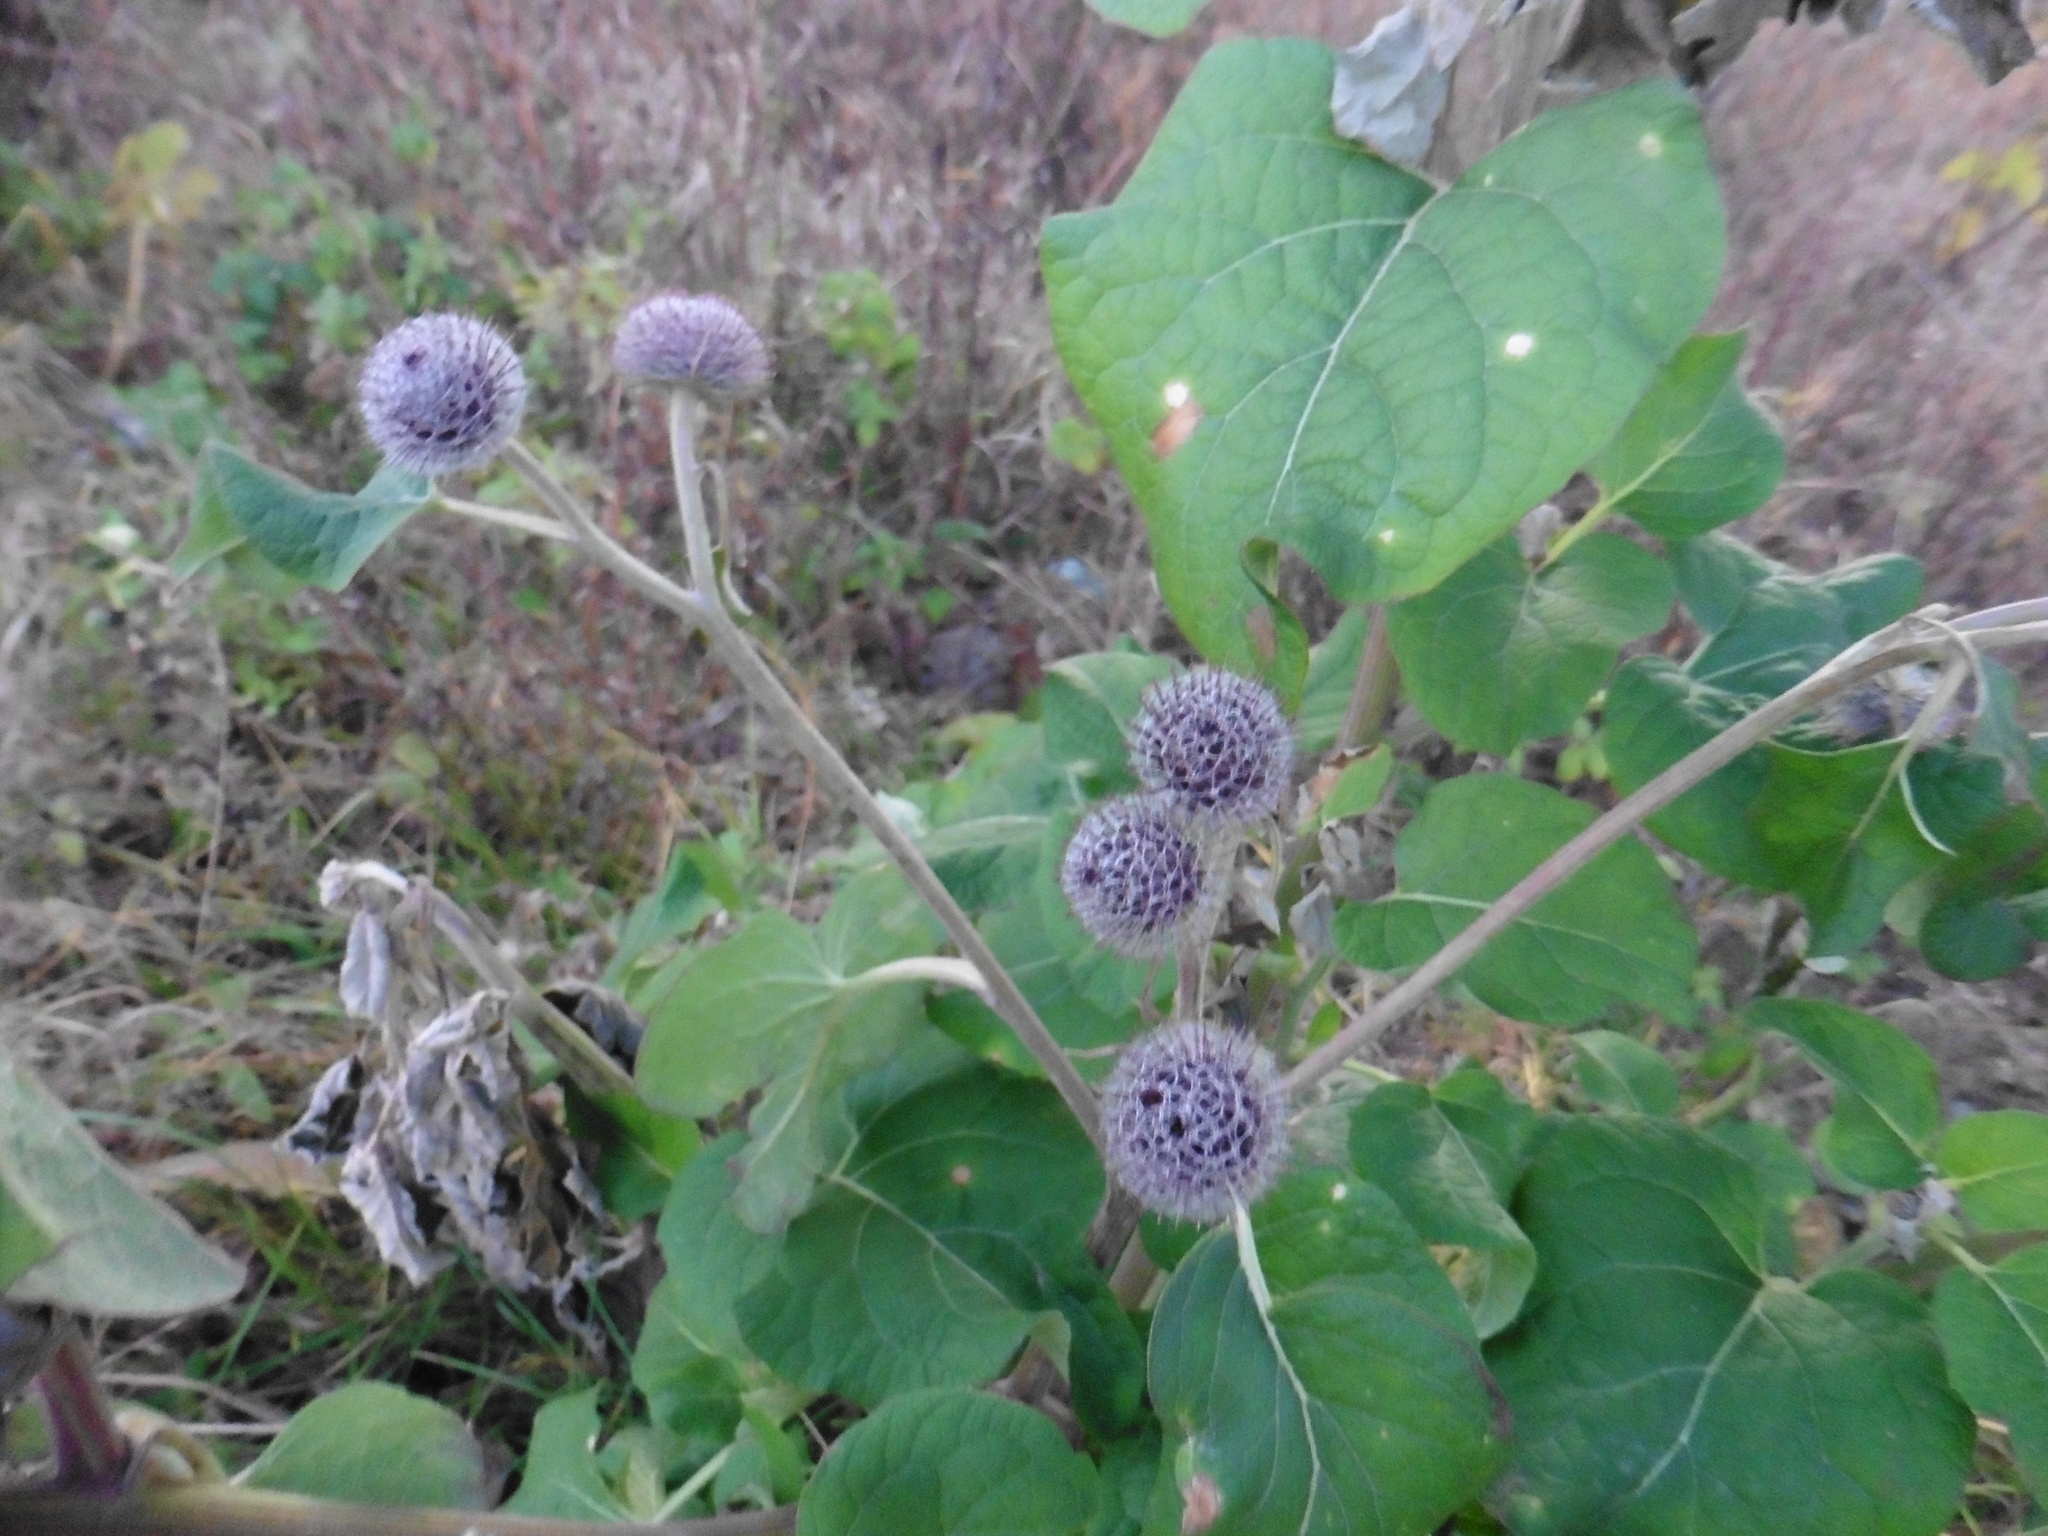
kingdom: Plantae
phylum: Tracheophyta
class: Magnoliopsida
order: Asterales
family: Asteraceae
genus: Arctium
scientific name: Arctium tomentosum
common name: Woolly burdock
